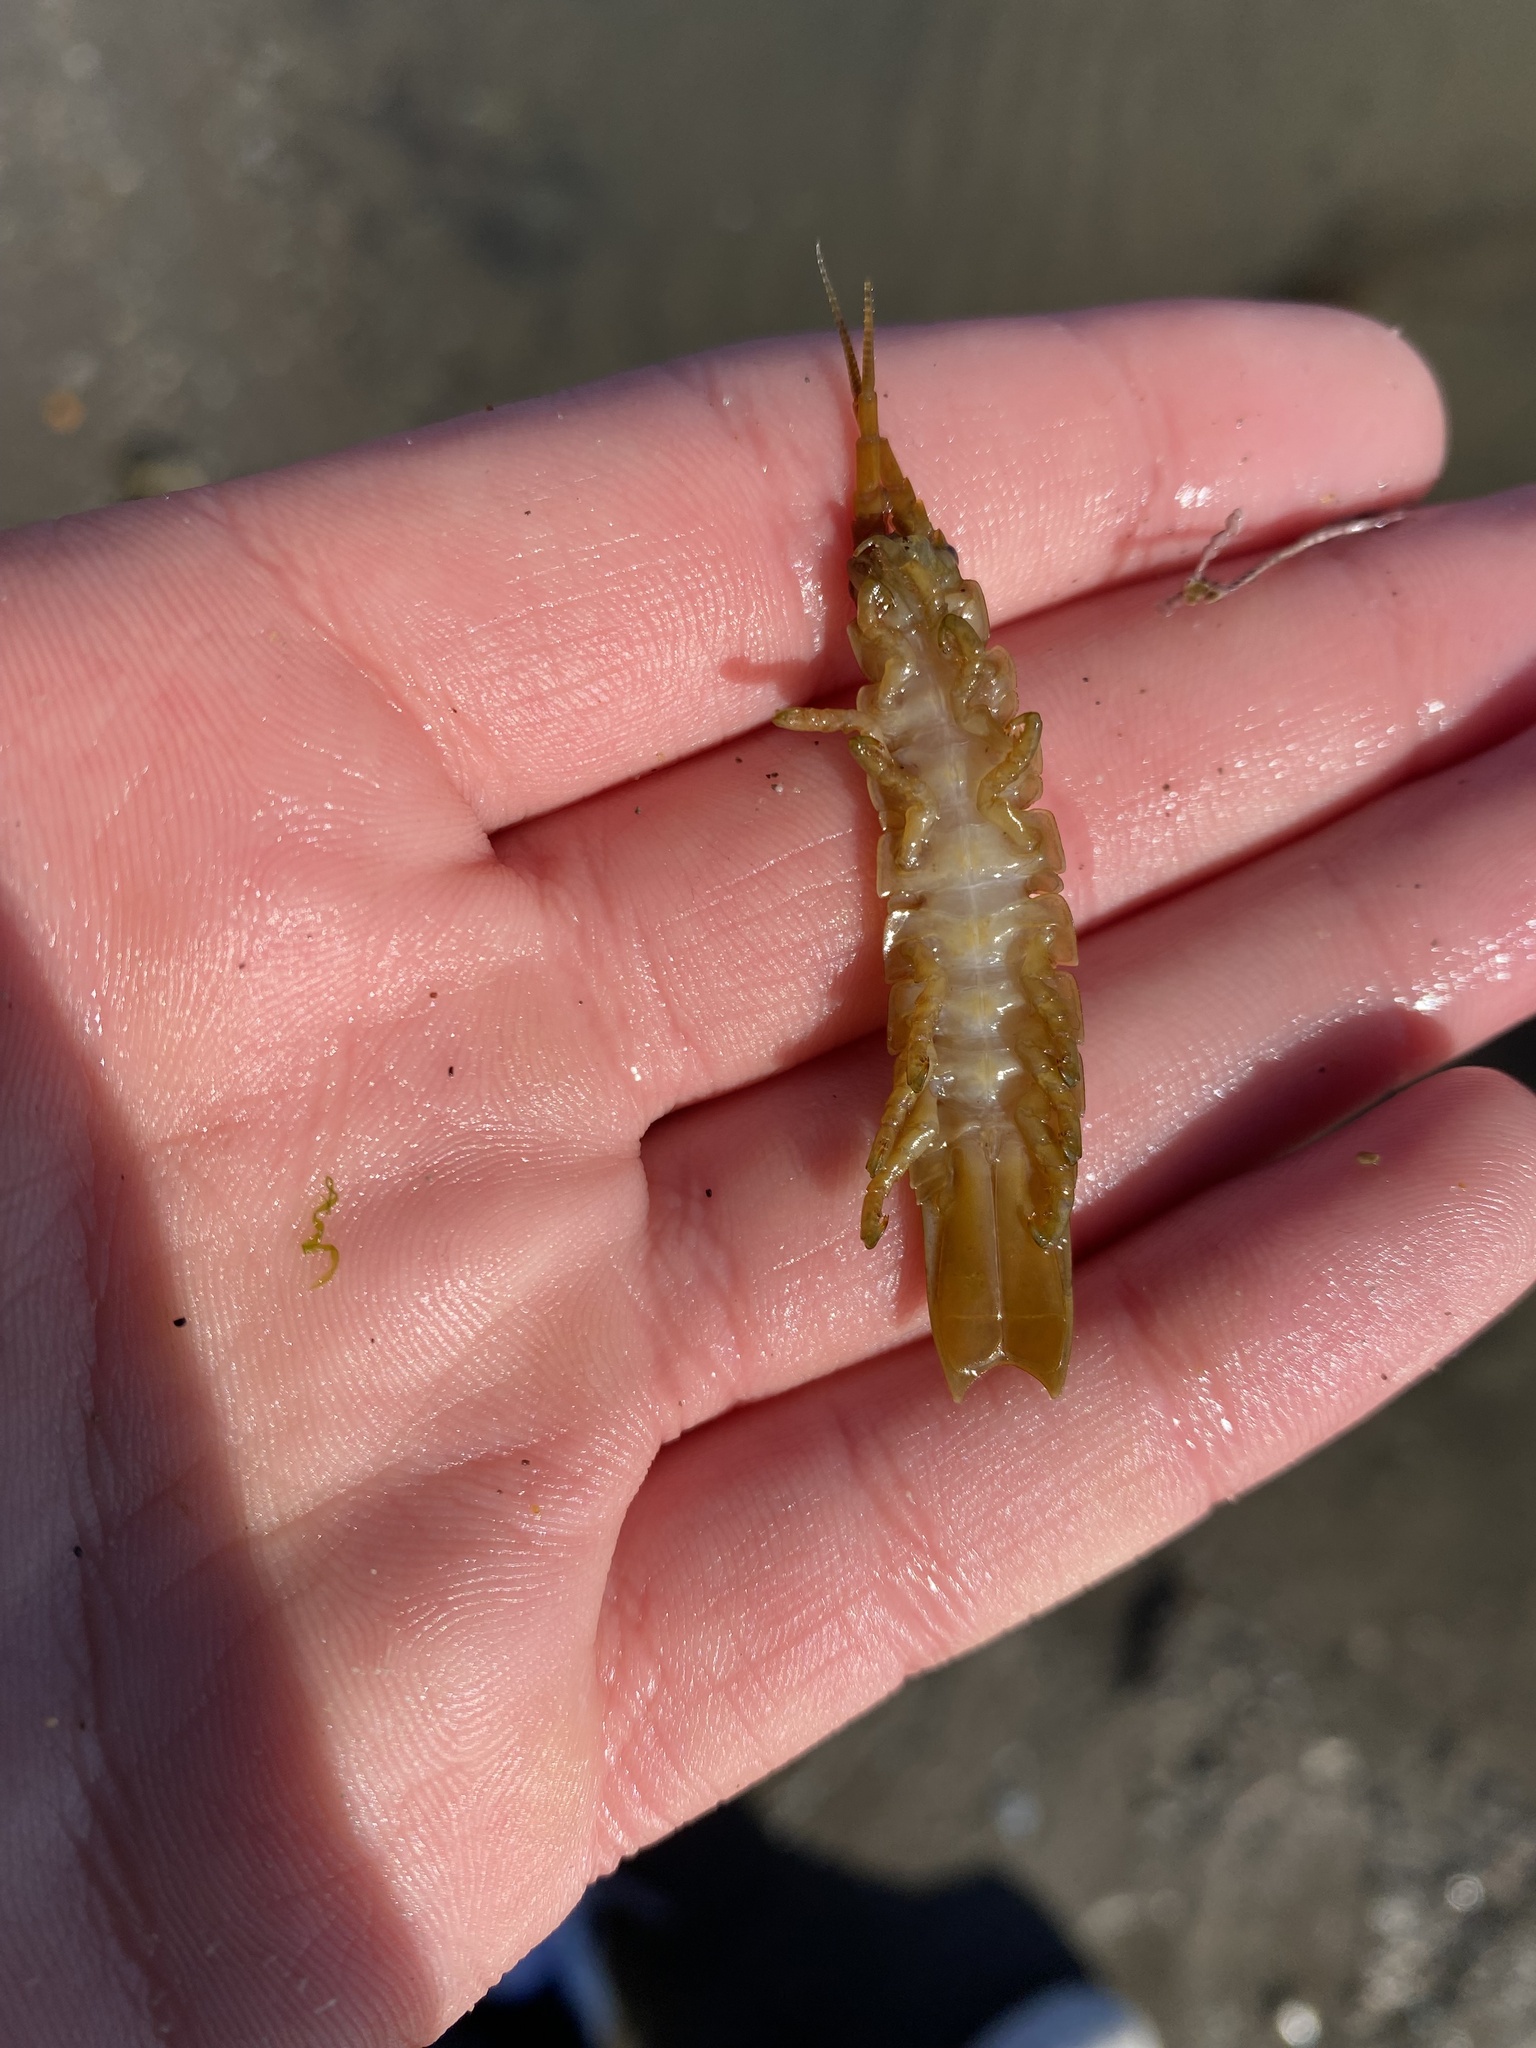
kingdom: Animalia
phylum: Arthropoda
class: Malacostraca
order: Isopoda
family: Idoteidae
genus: Pentidotea
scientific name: Pentidotea resecata
